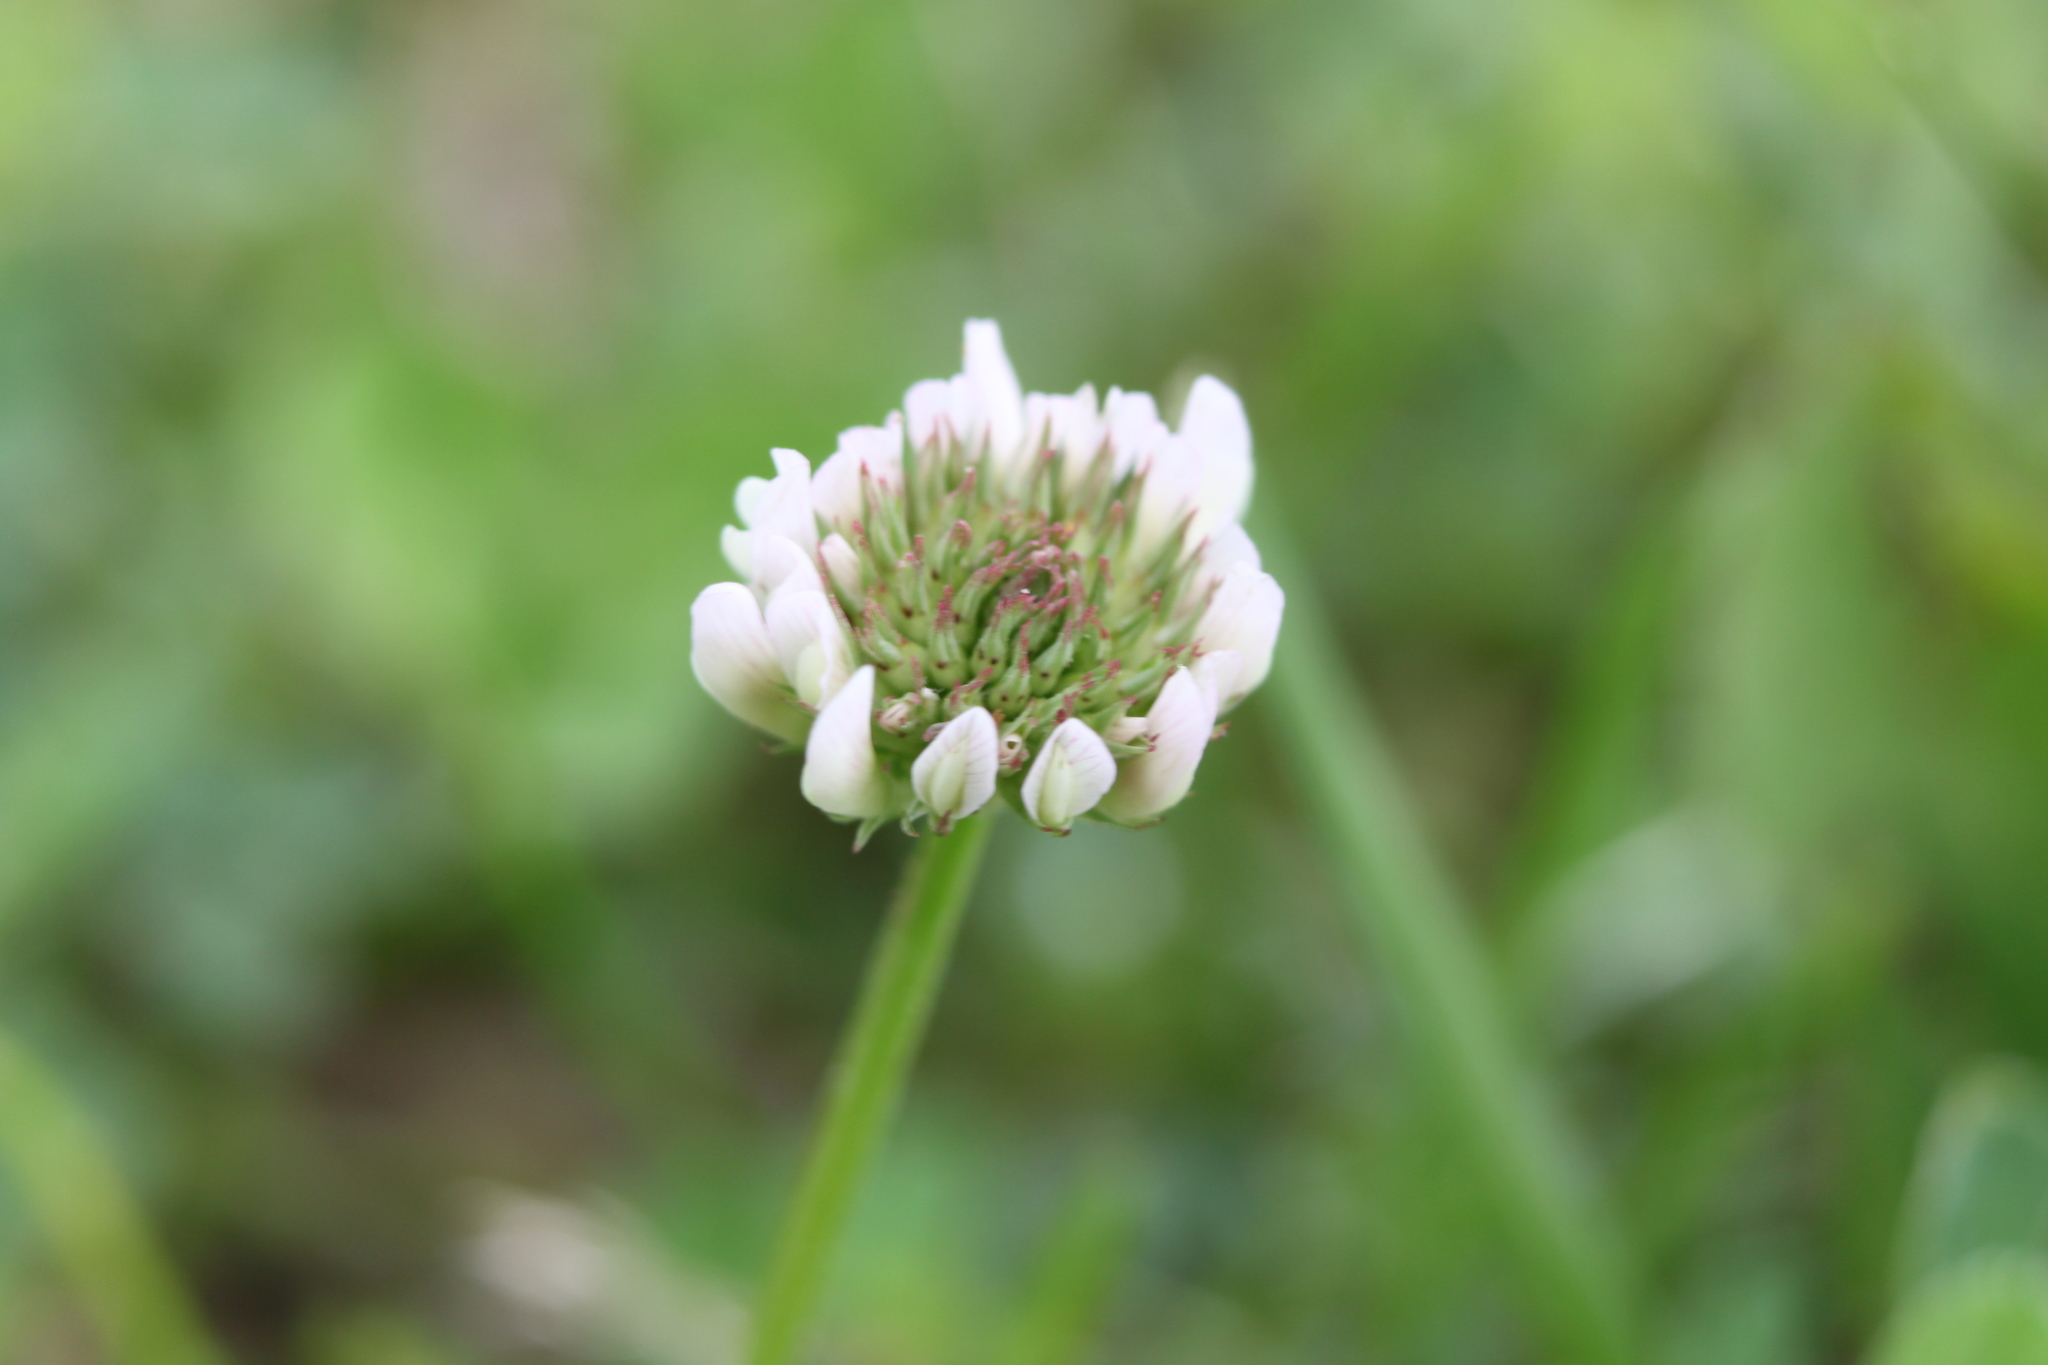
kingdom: Plantae
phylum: Tracheophyta
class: Magnoliopsida
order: Fabales
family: Fabaceae
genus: Trifolium
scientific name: Trifolium repens
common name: White clover
